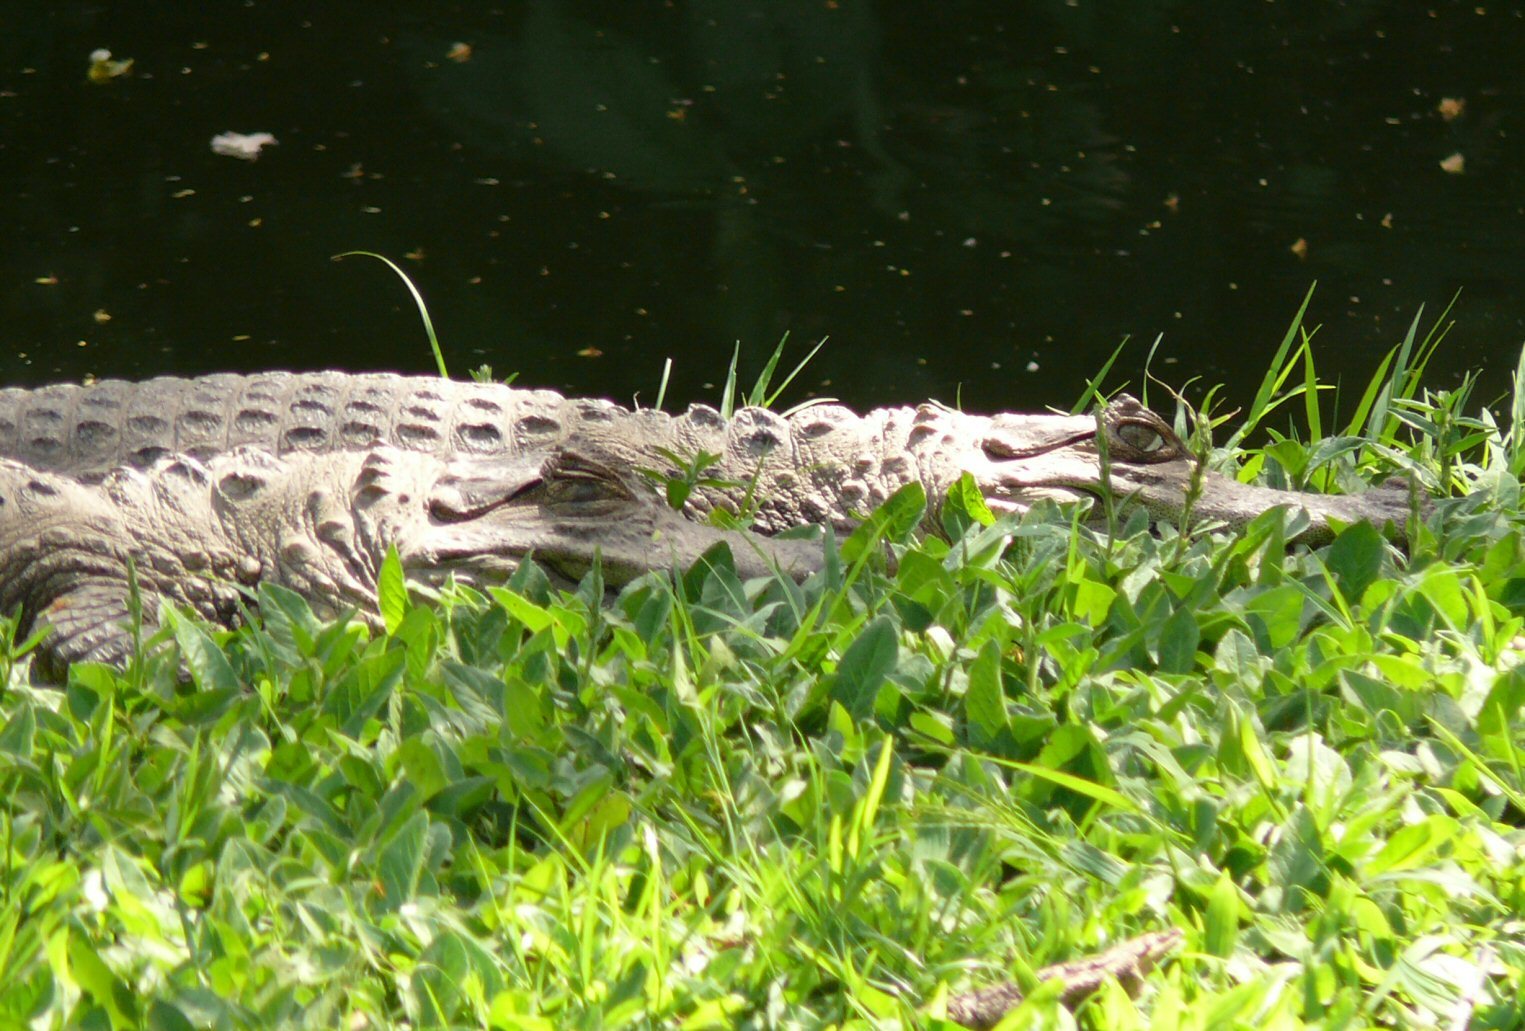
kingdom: Animalia
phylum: Chordata
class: Crocodylia
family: Alligatoridae
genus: Caiman
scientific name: Caiman crocodilus
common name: Common caiman
